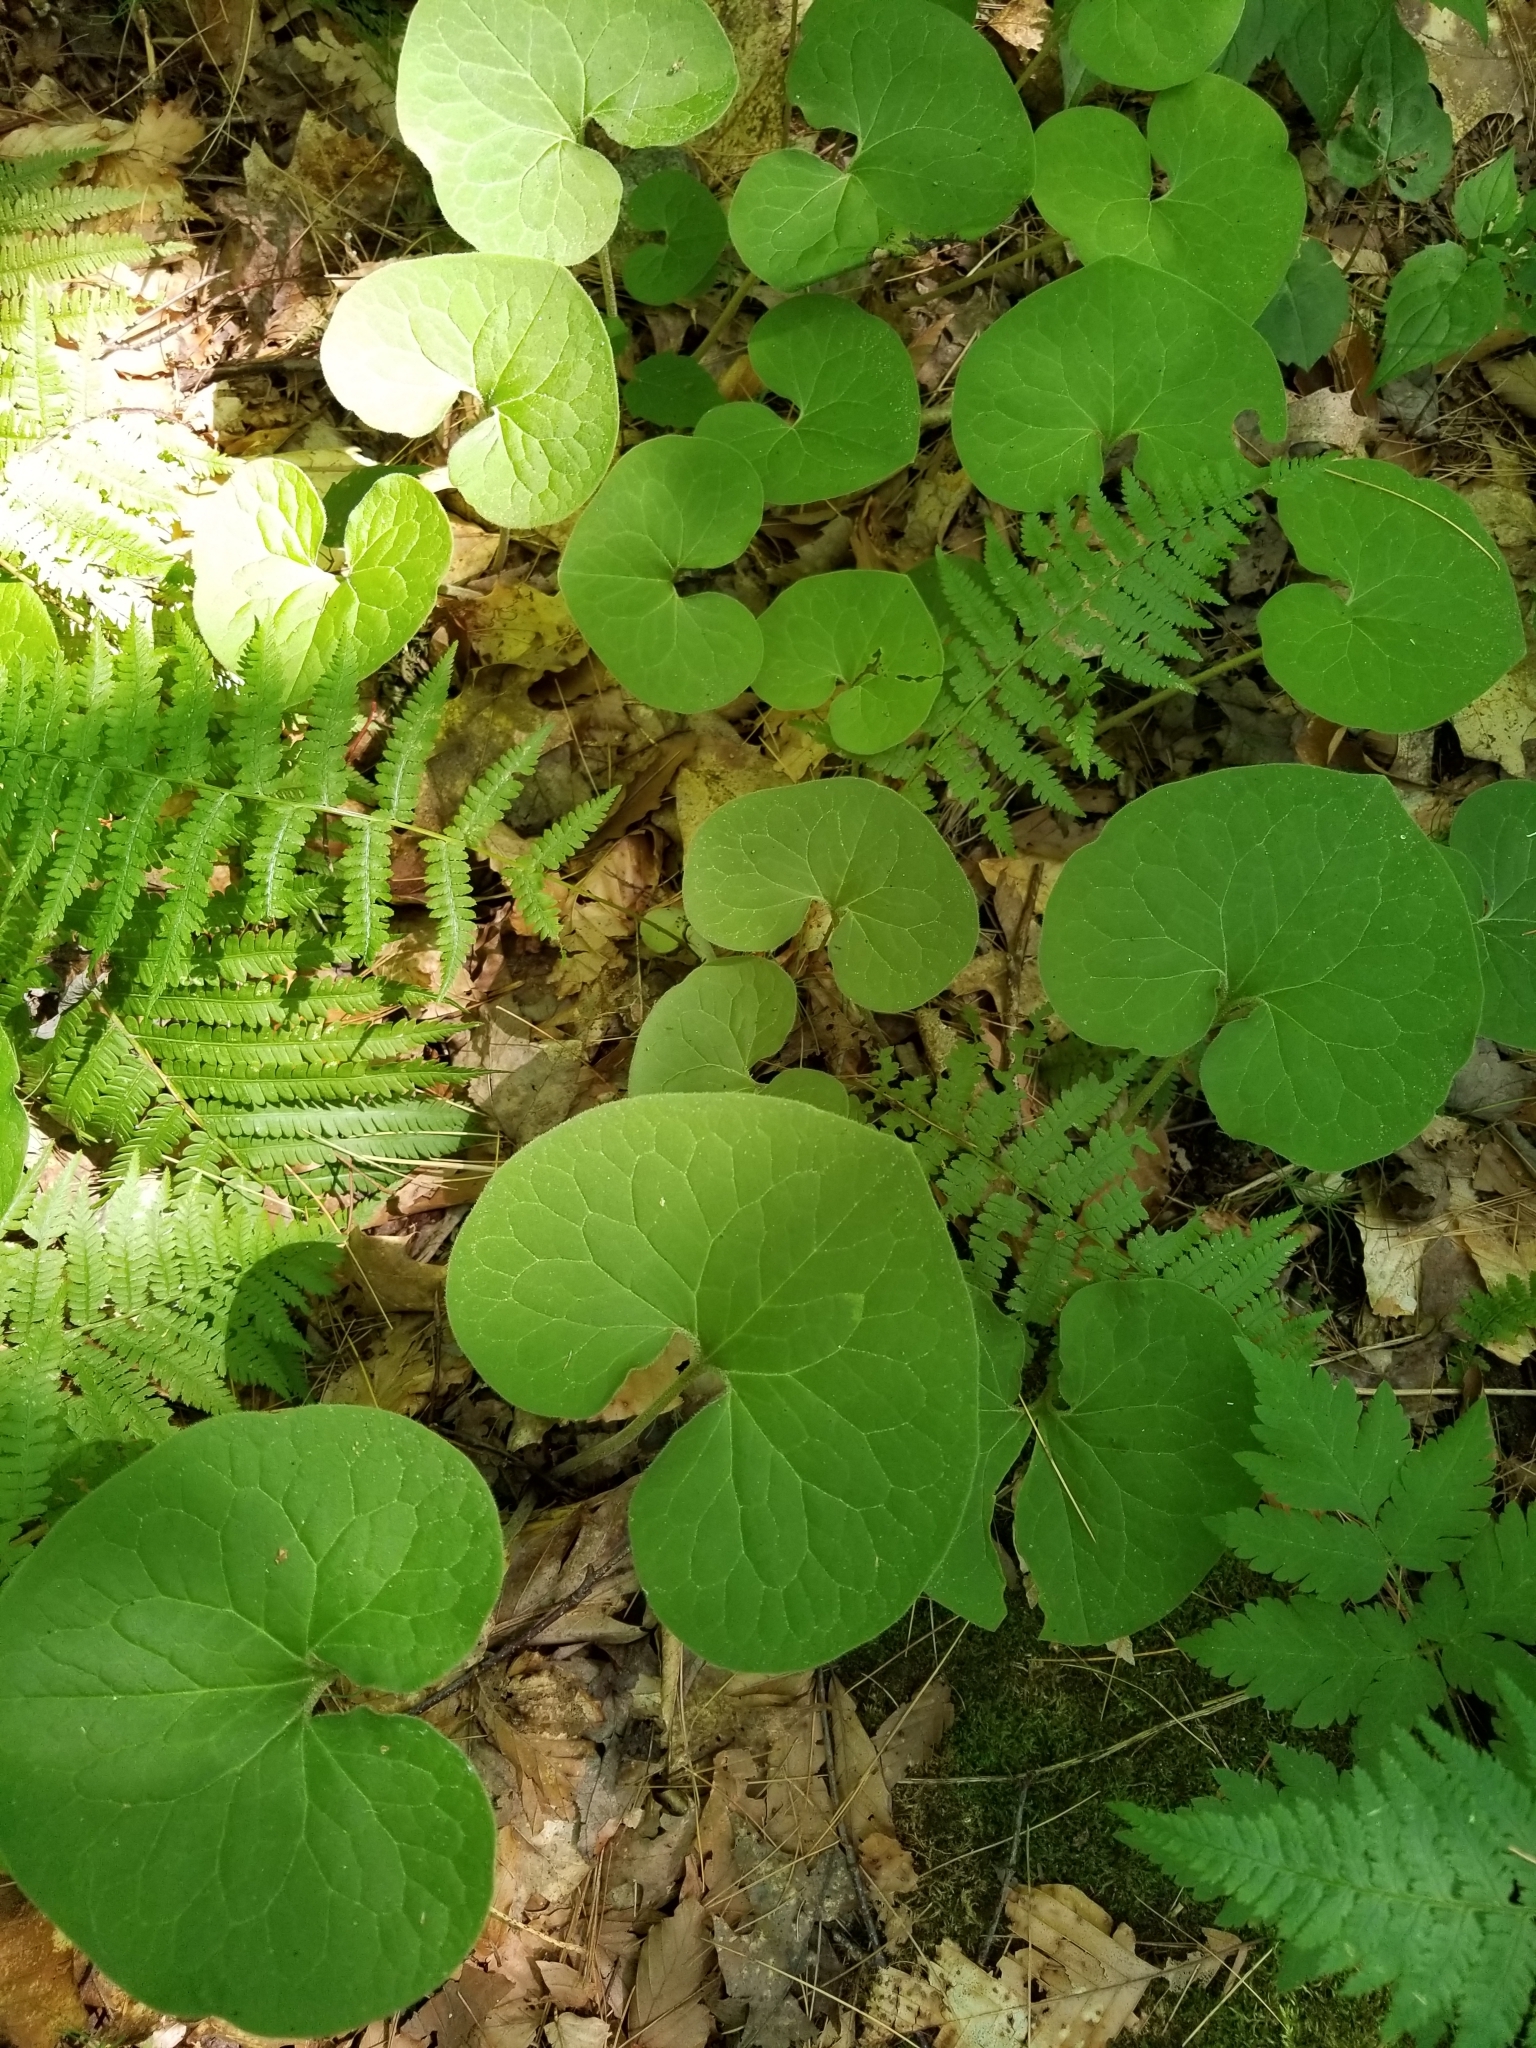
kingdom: Plantae
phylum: Tracheophyta
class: Magnoliopsida
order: Piperales
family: Aristolochiaceae
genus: Asarum
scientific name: Asarum canadense
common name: Wild ginger
